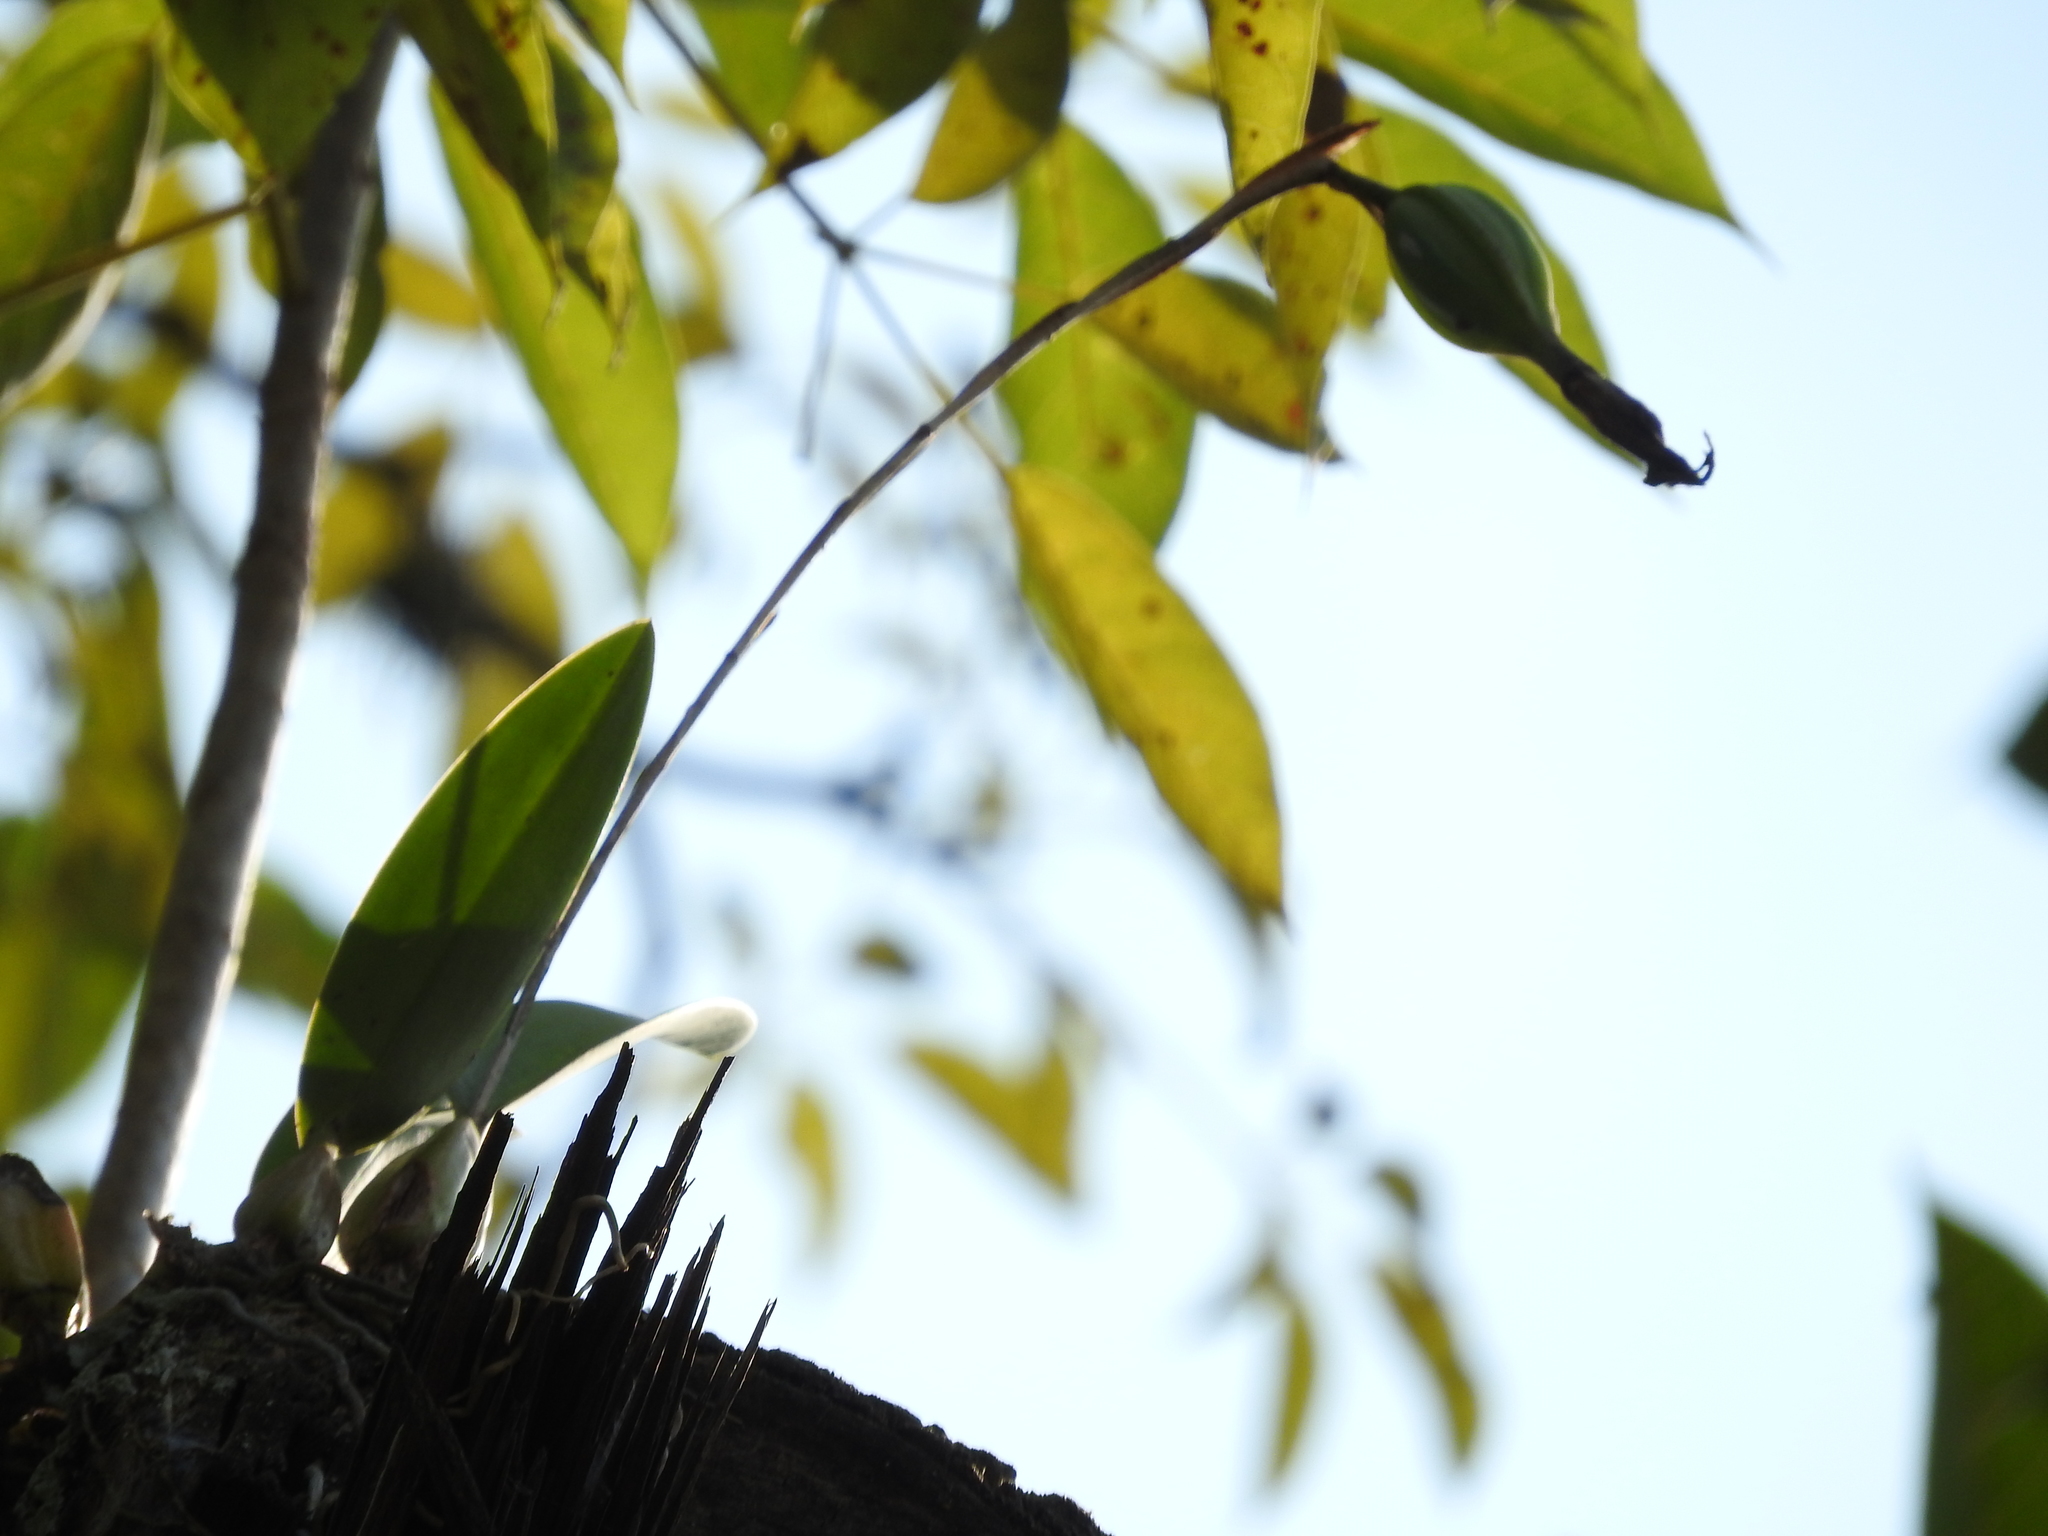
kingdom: Plantae
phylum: Tracheophyta
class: Liliopsida
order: Asparagales
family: Orchidaceae
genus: Laelia
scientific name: Laelia anceps
